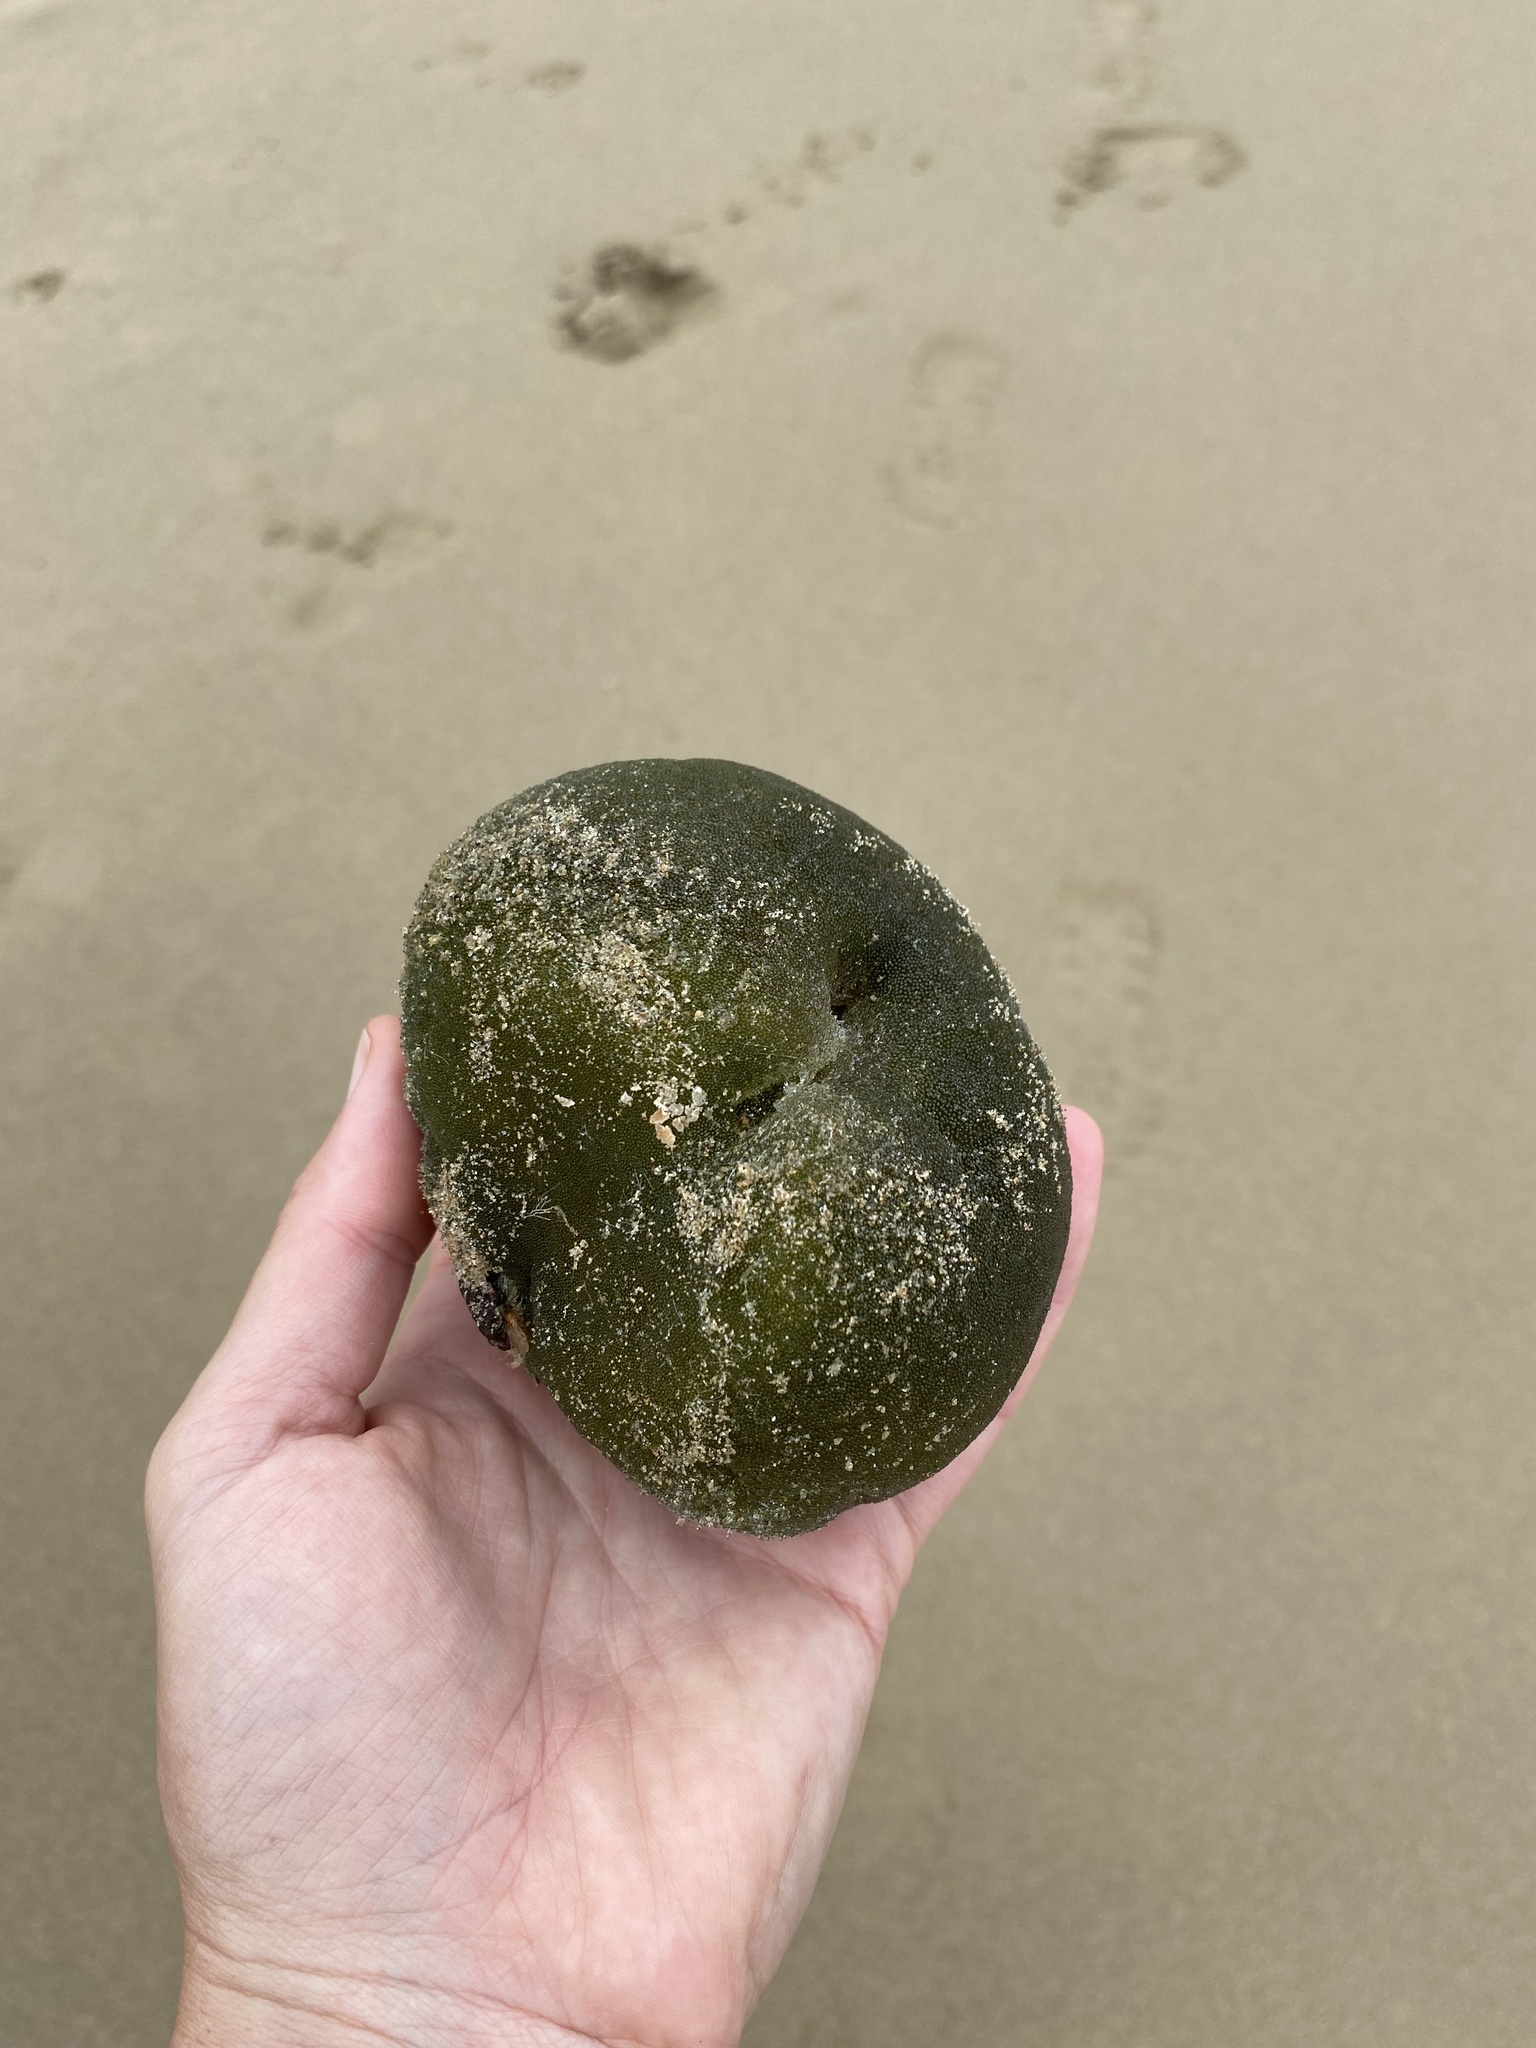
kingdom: Plantae
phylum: Chlorophyta
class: Ulvophyceae
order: Bryopsidales
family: Codiaceae
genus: Codium
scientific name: Codium
